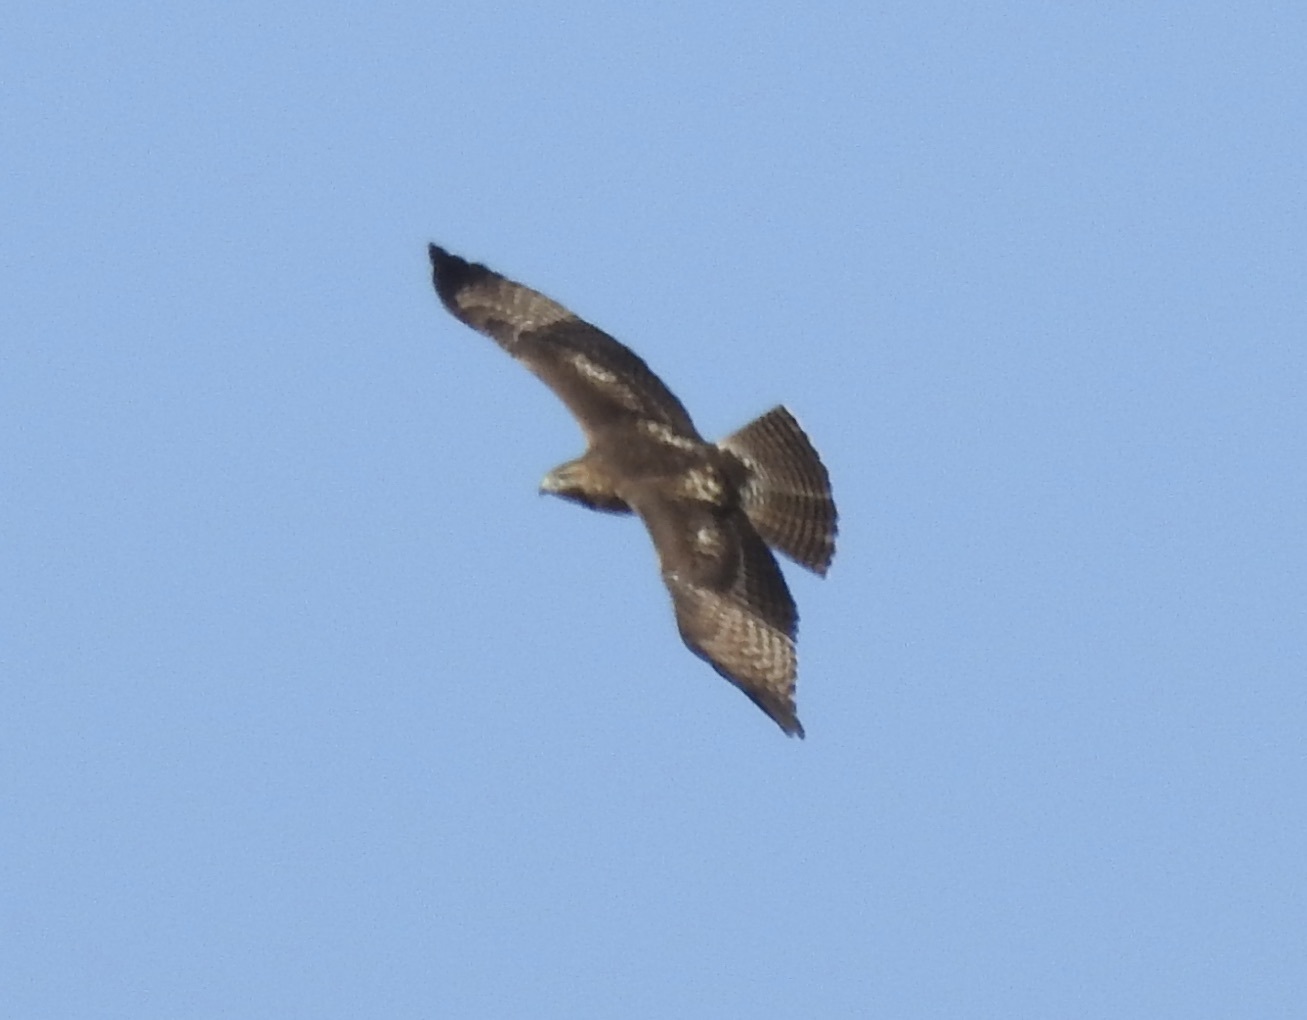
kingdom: Animalia
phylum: Chordata
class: Aves
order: Accipitriformes
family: Accipitridae
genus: Buteo
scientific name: Buteo jamaicensis
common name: Red-tailed hawk
